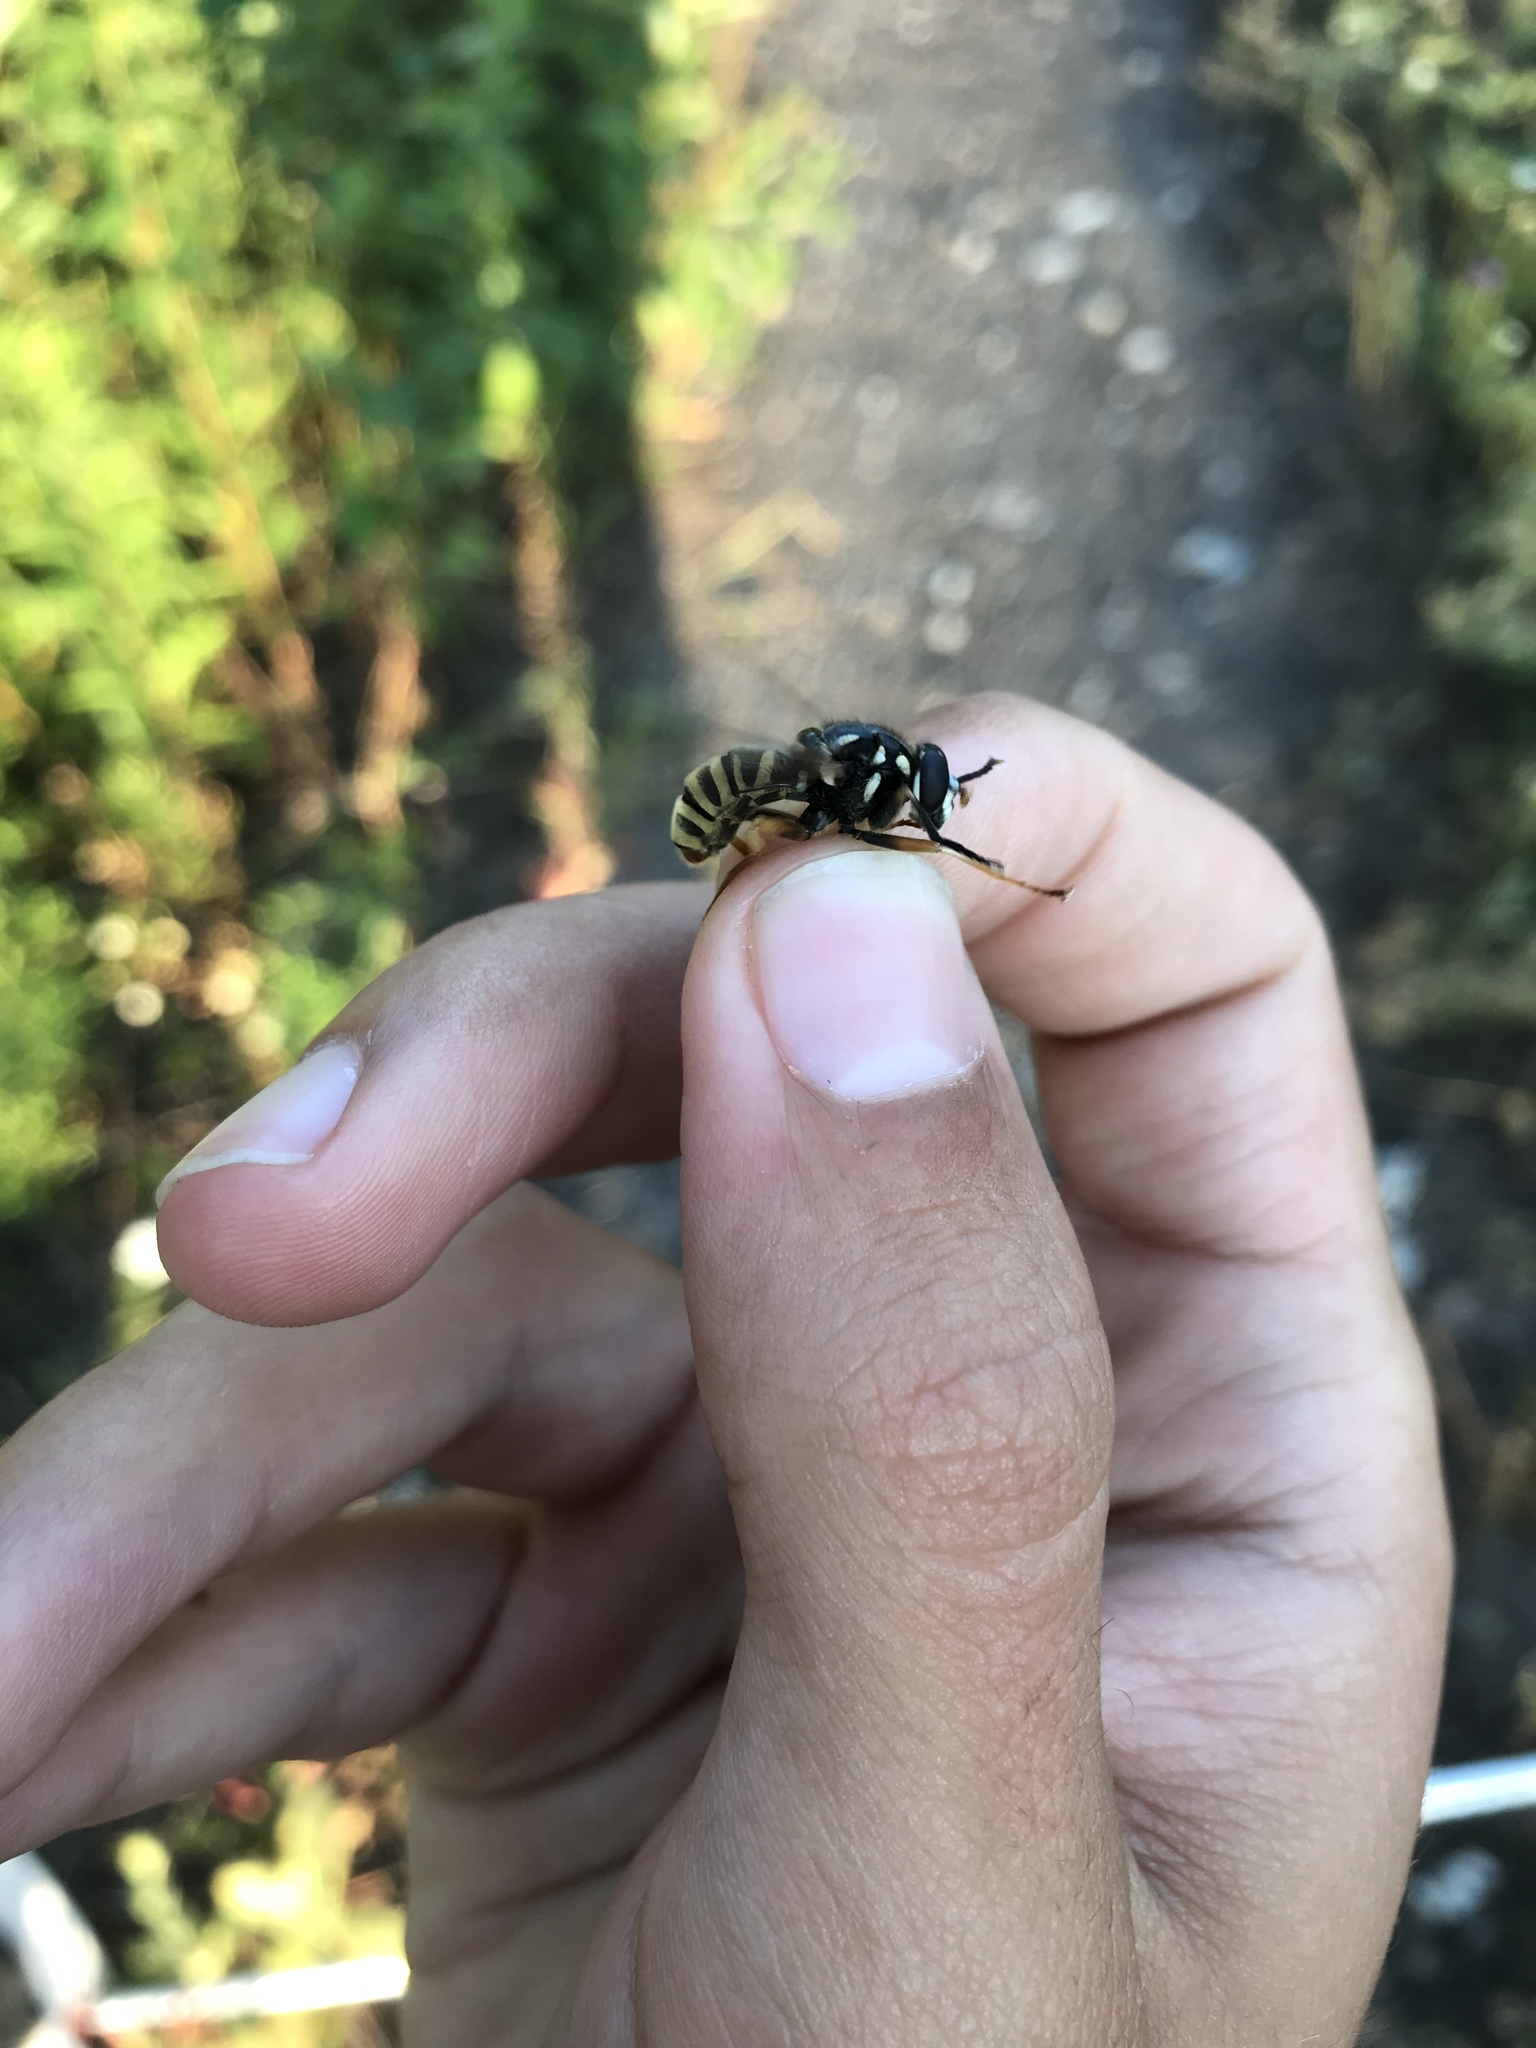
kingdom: Animalia
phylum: Arthropoda
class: Insecta
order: Diptera
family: Syrphidae
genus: Temnostoma
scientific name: Temnostoma excentricum
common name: Black-spotted falsehorn
